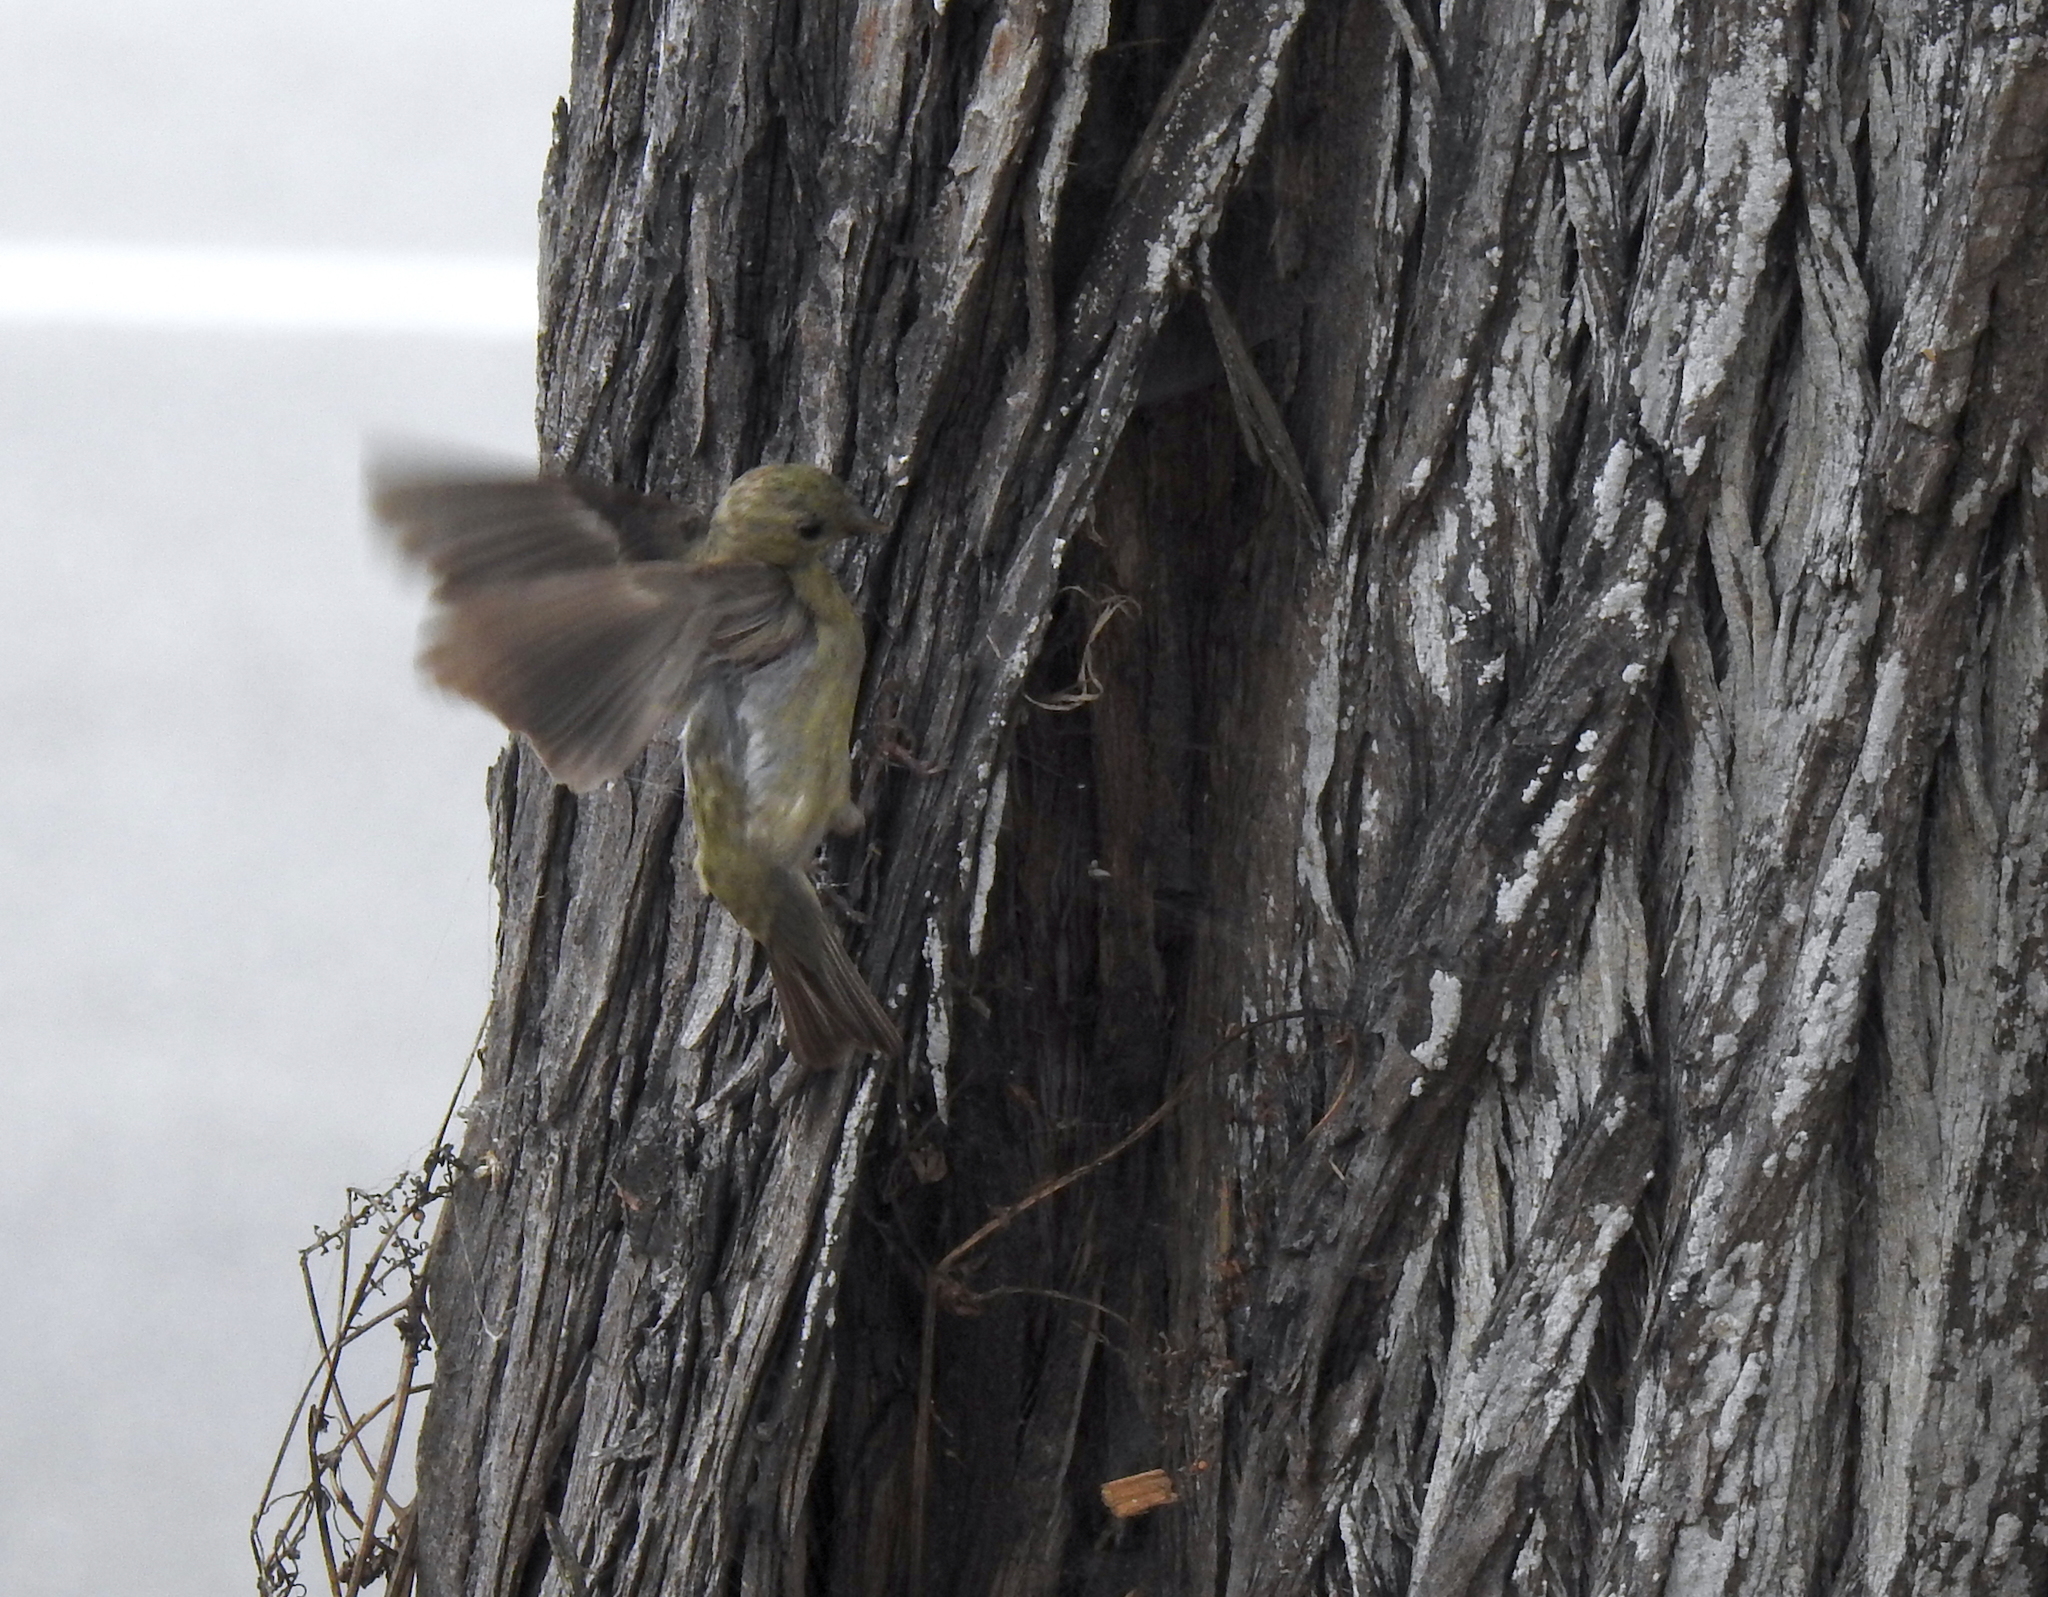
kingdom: Animalia
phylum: Chordata
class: Aves
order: Passeriformes
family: Fringillidae
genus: Spinus
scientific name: Spinus psaltria
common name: Lesser goldfinch
